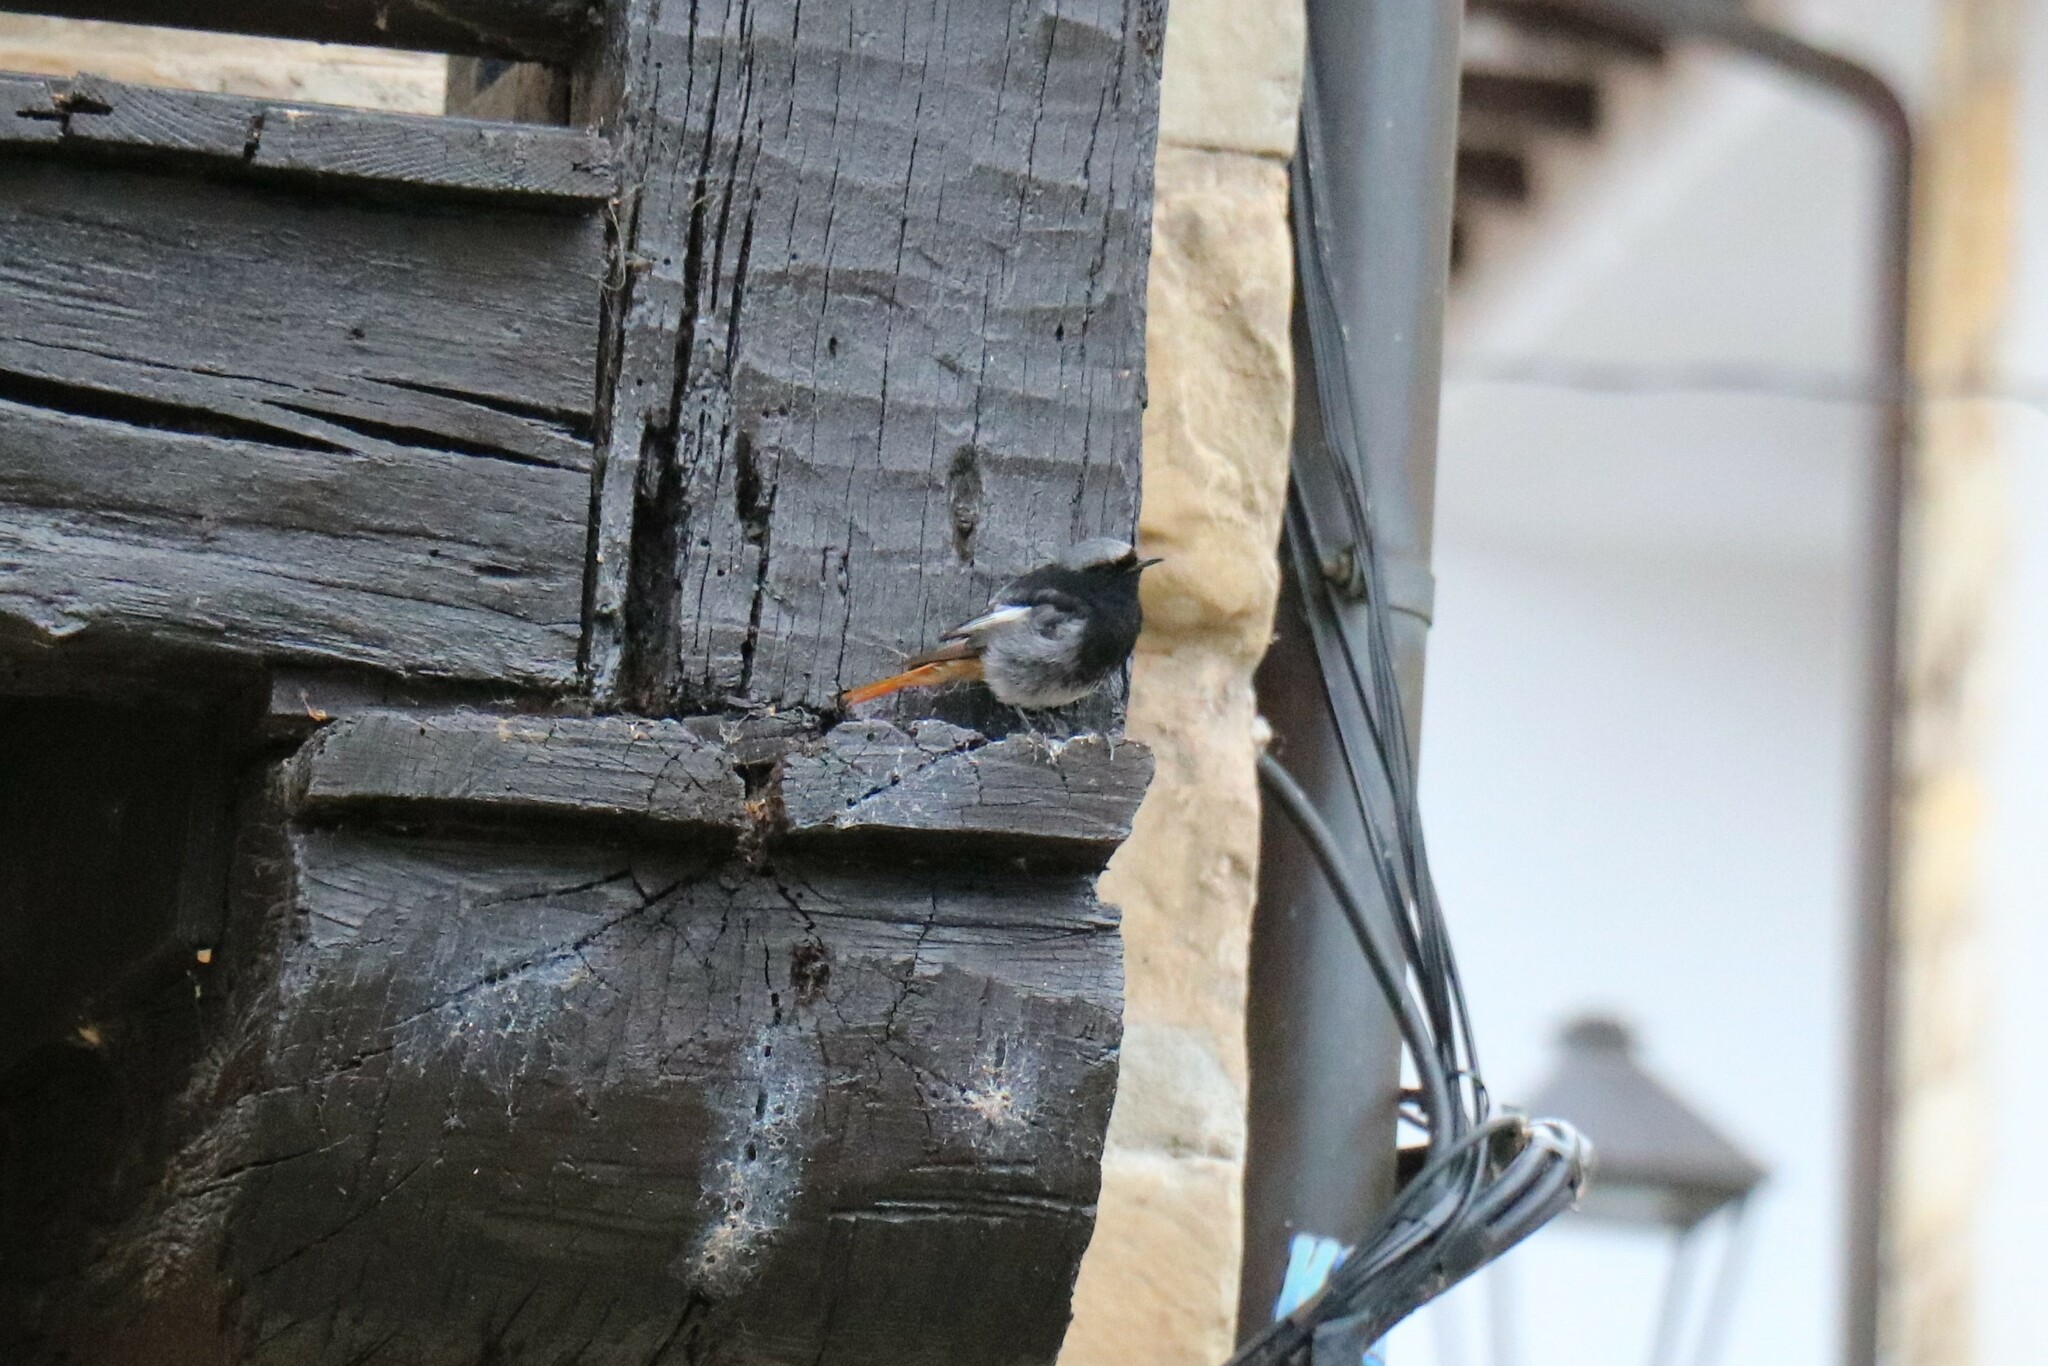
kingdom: Animalia
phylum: Chordata
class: Aves
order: Passeriformes
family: Muscicapidae
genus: Phoenicurus
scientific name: Phoenicurus ochruros
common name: Black redstart
